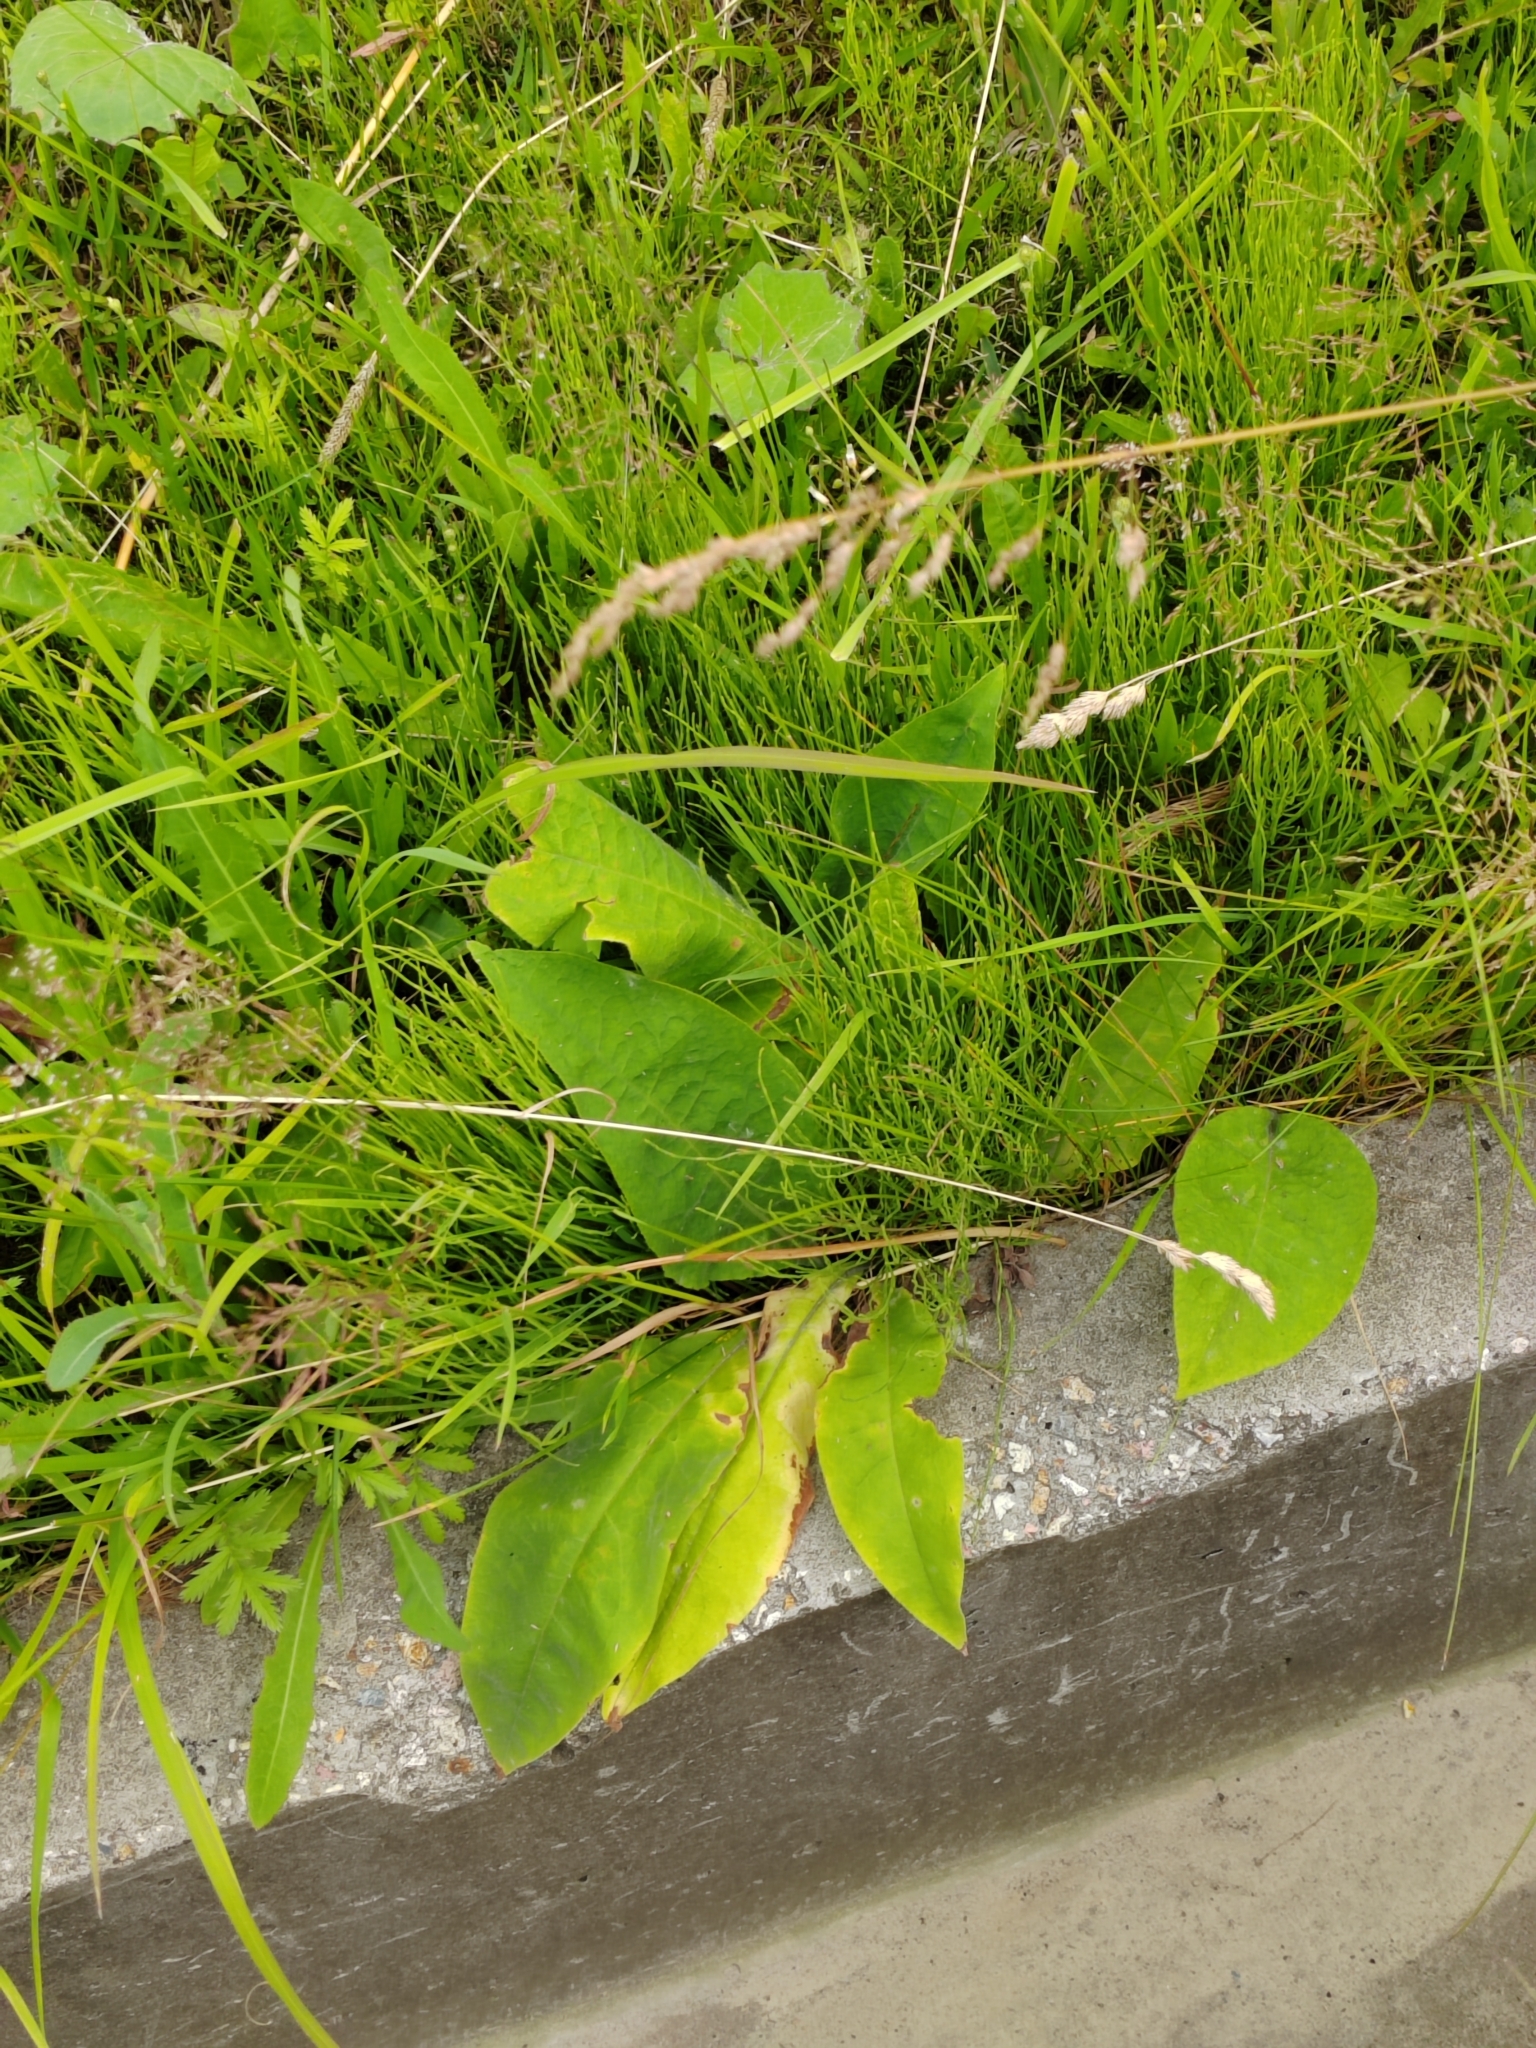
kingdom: Plantae
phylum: Tracheophyta
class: Magnoliopsida
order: Boraginales
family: Boraginaceae
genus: Pulmonaria
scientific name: Pulmonaria mollis
